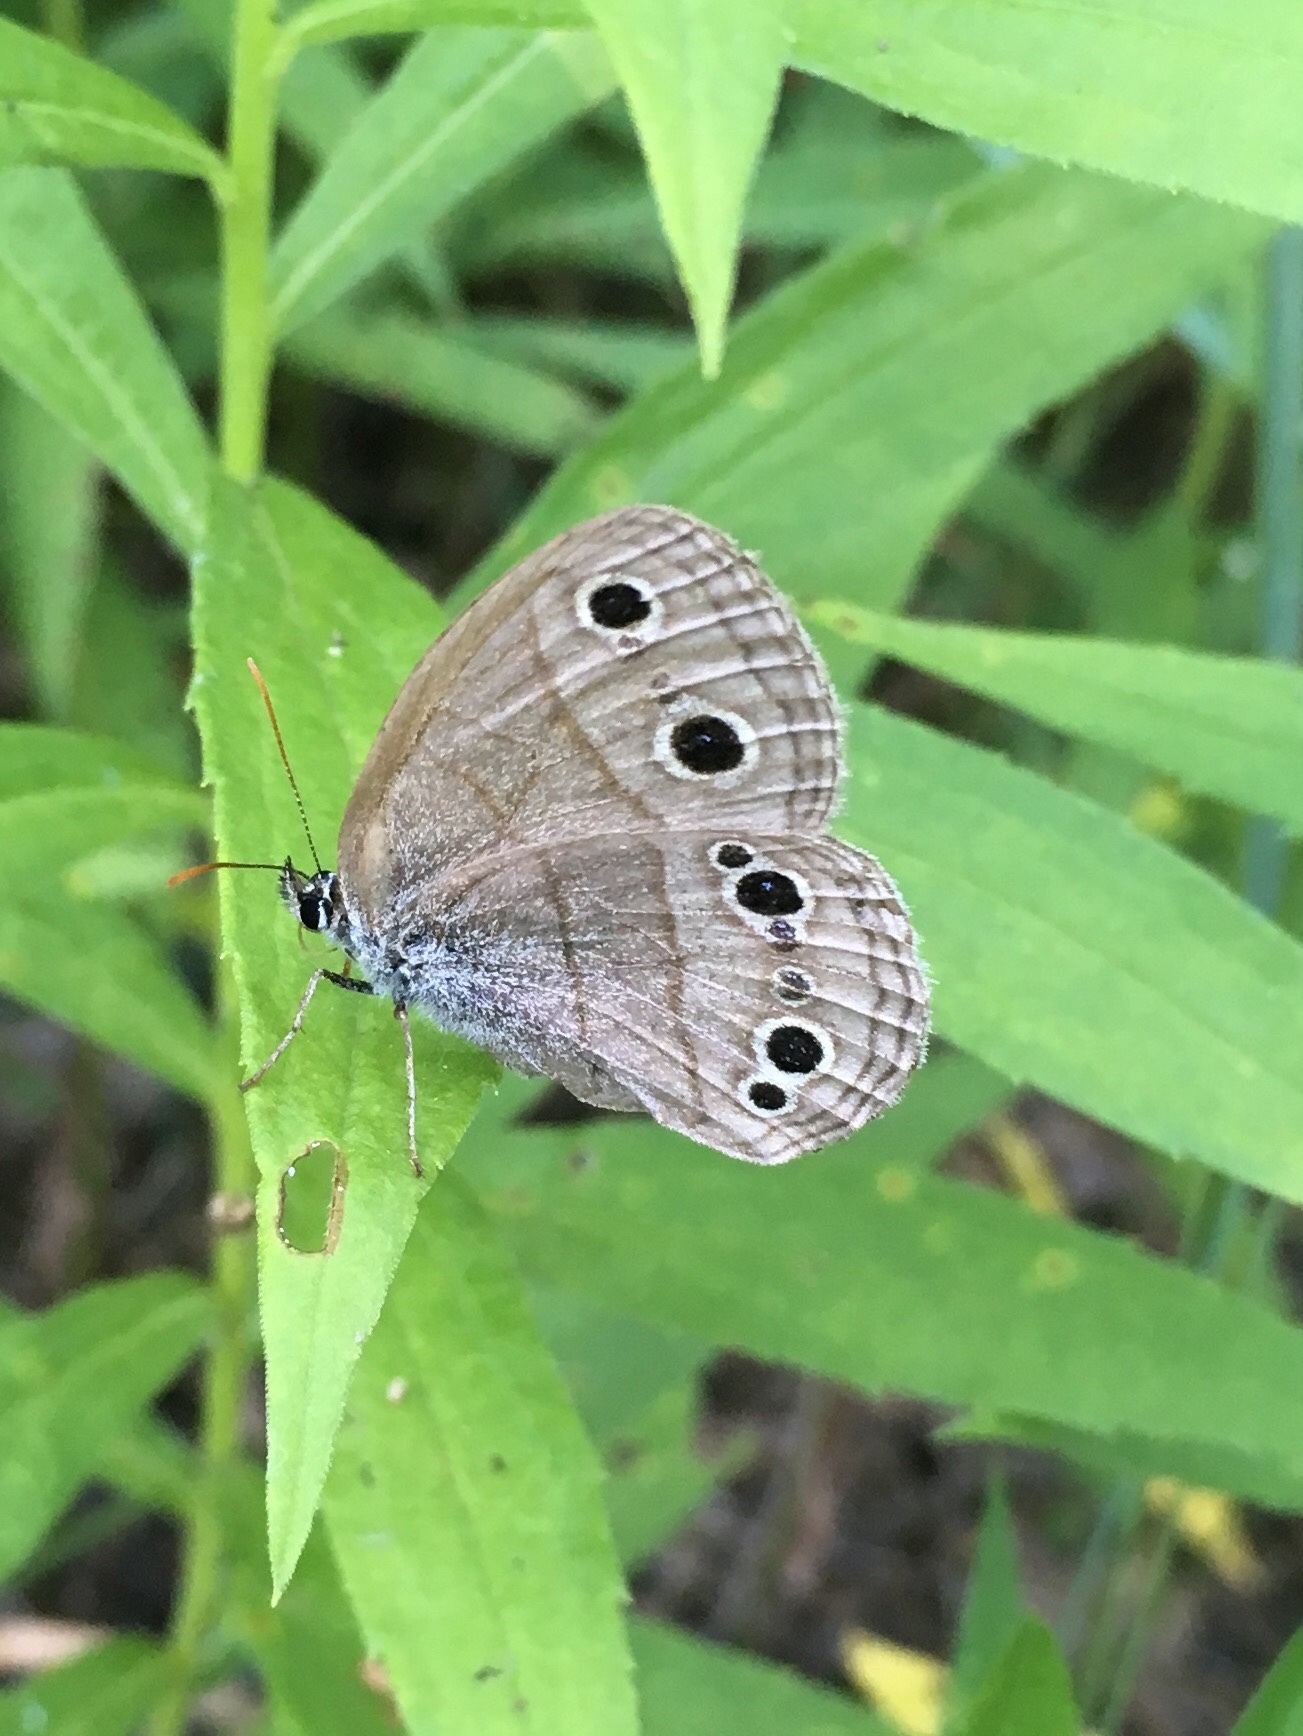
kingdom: Animalia
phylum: Arthropoda
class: Insecta
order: Lepidoptera
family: Nymphalidae
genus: Euptychia
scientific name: Euptychia cymela
